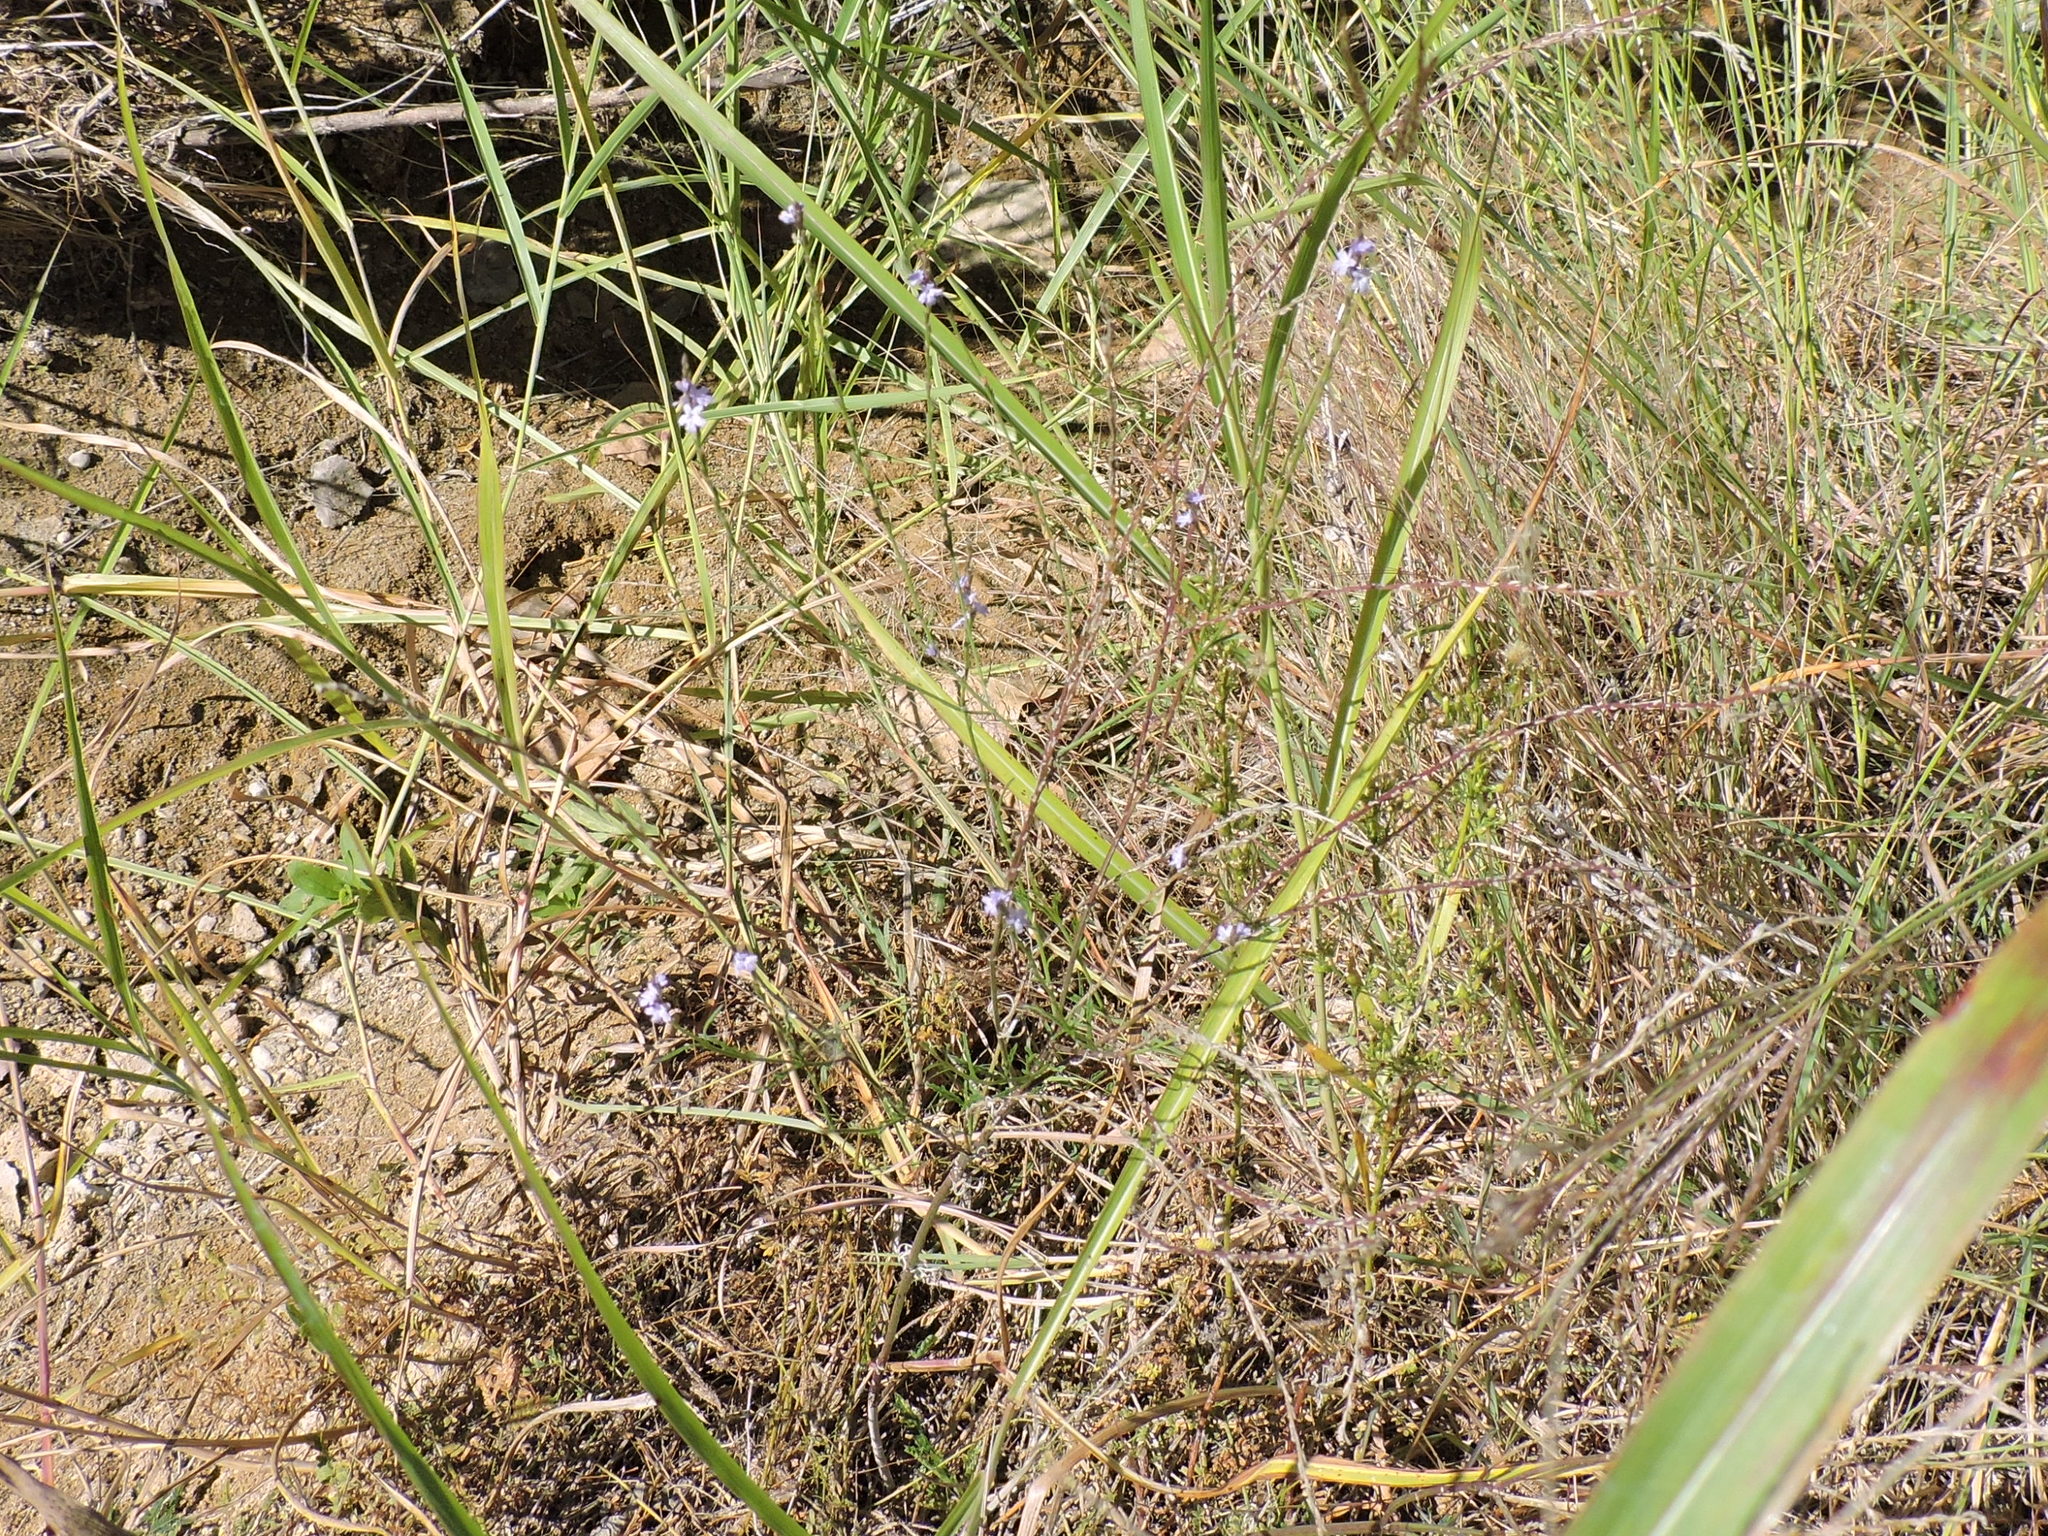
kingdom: Plantae
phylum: Tracheophyta
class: Magnoliopsida
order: Lamiales
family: Verbenaceae
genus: Verbena
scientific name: Verbena halei
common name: Texas vervain
